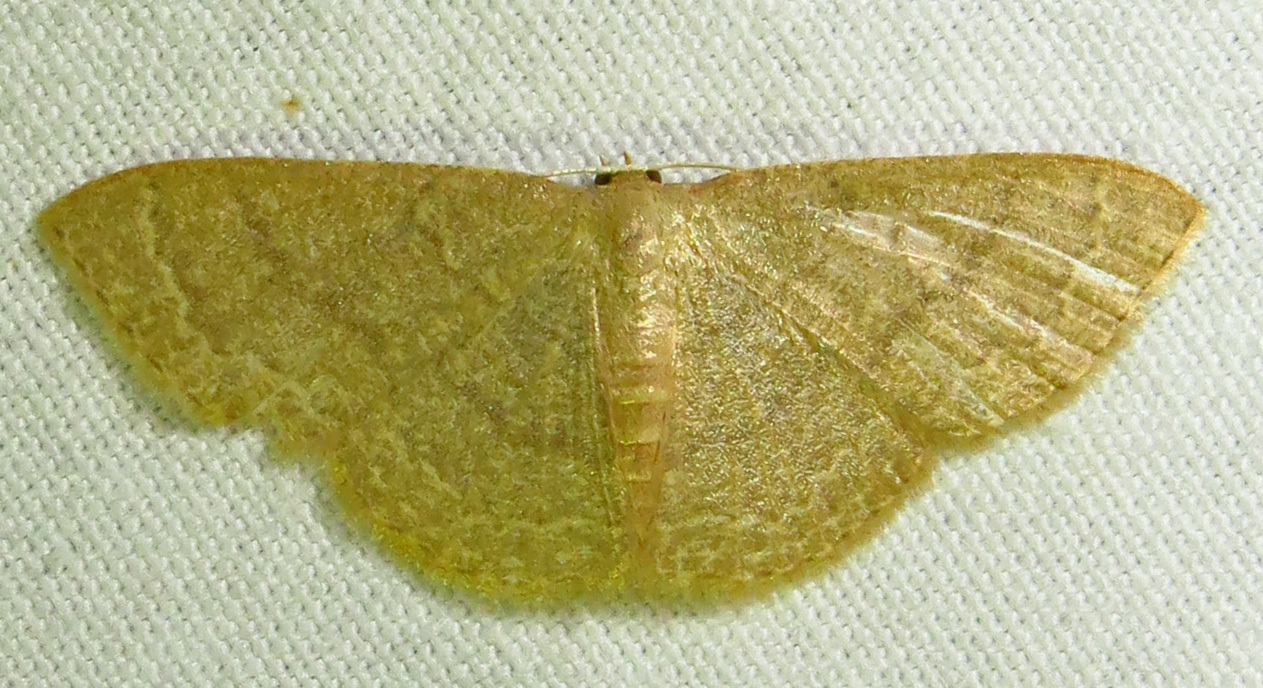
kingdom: Animalia
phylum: Arthropoda
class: Insecta
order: Lepidoptera
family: Geometridae
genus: Pleuroprucha
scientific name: Pleuroprucha insulsaria
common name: Common tan wave
